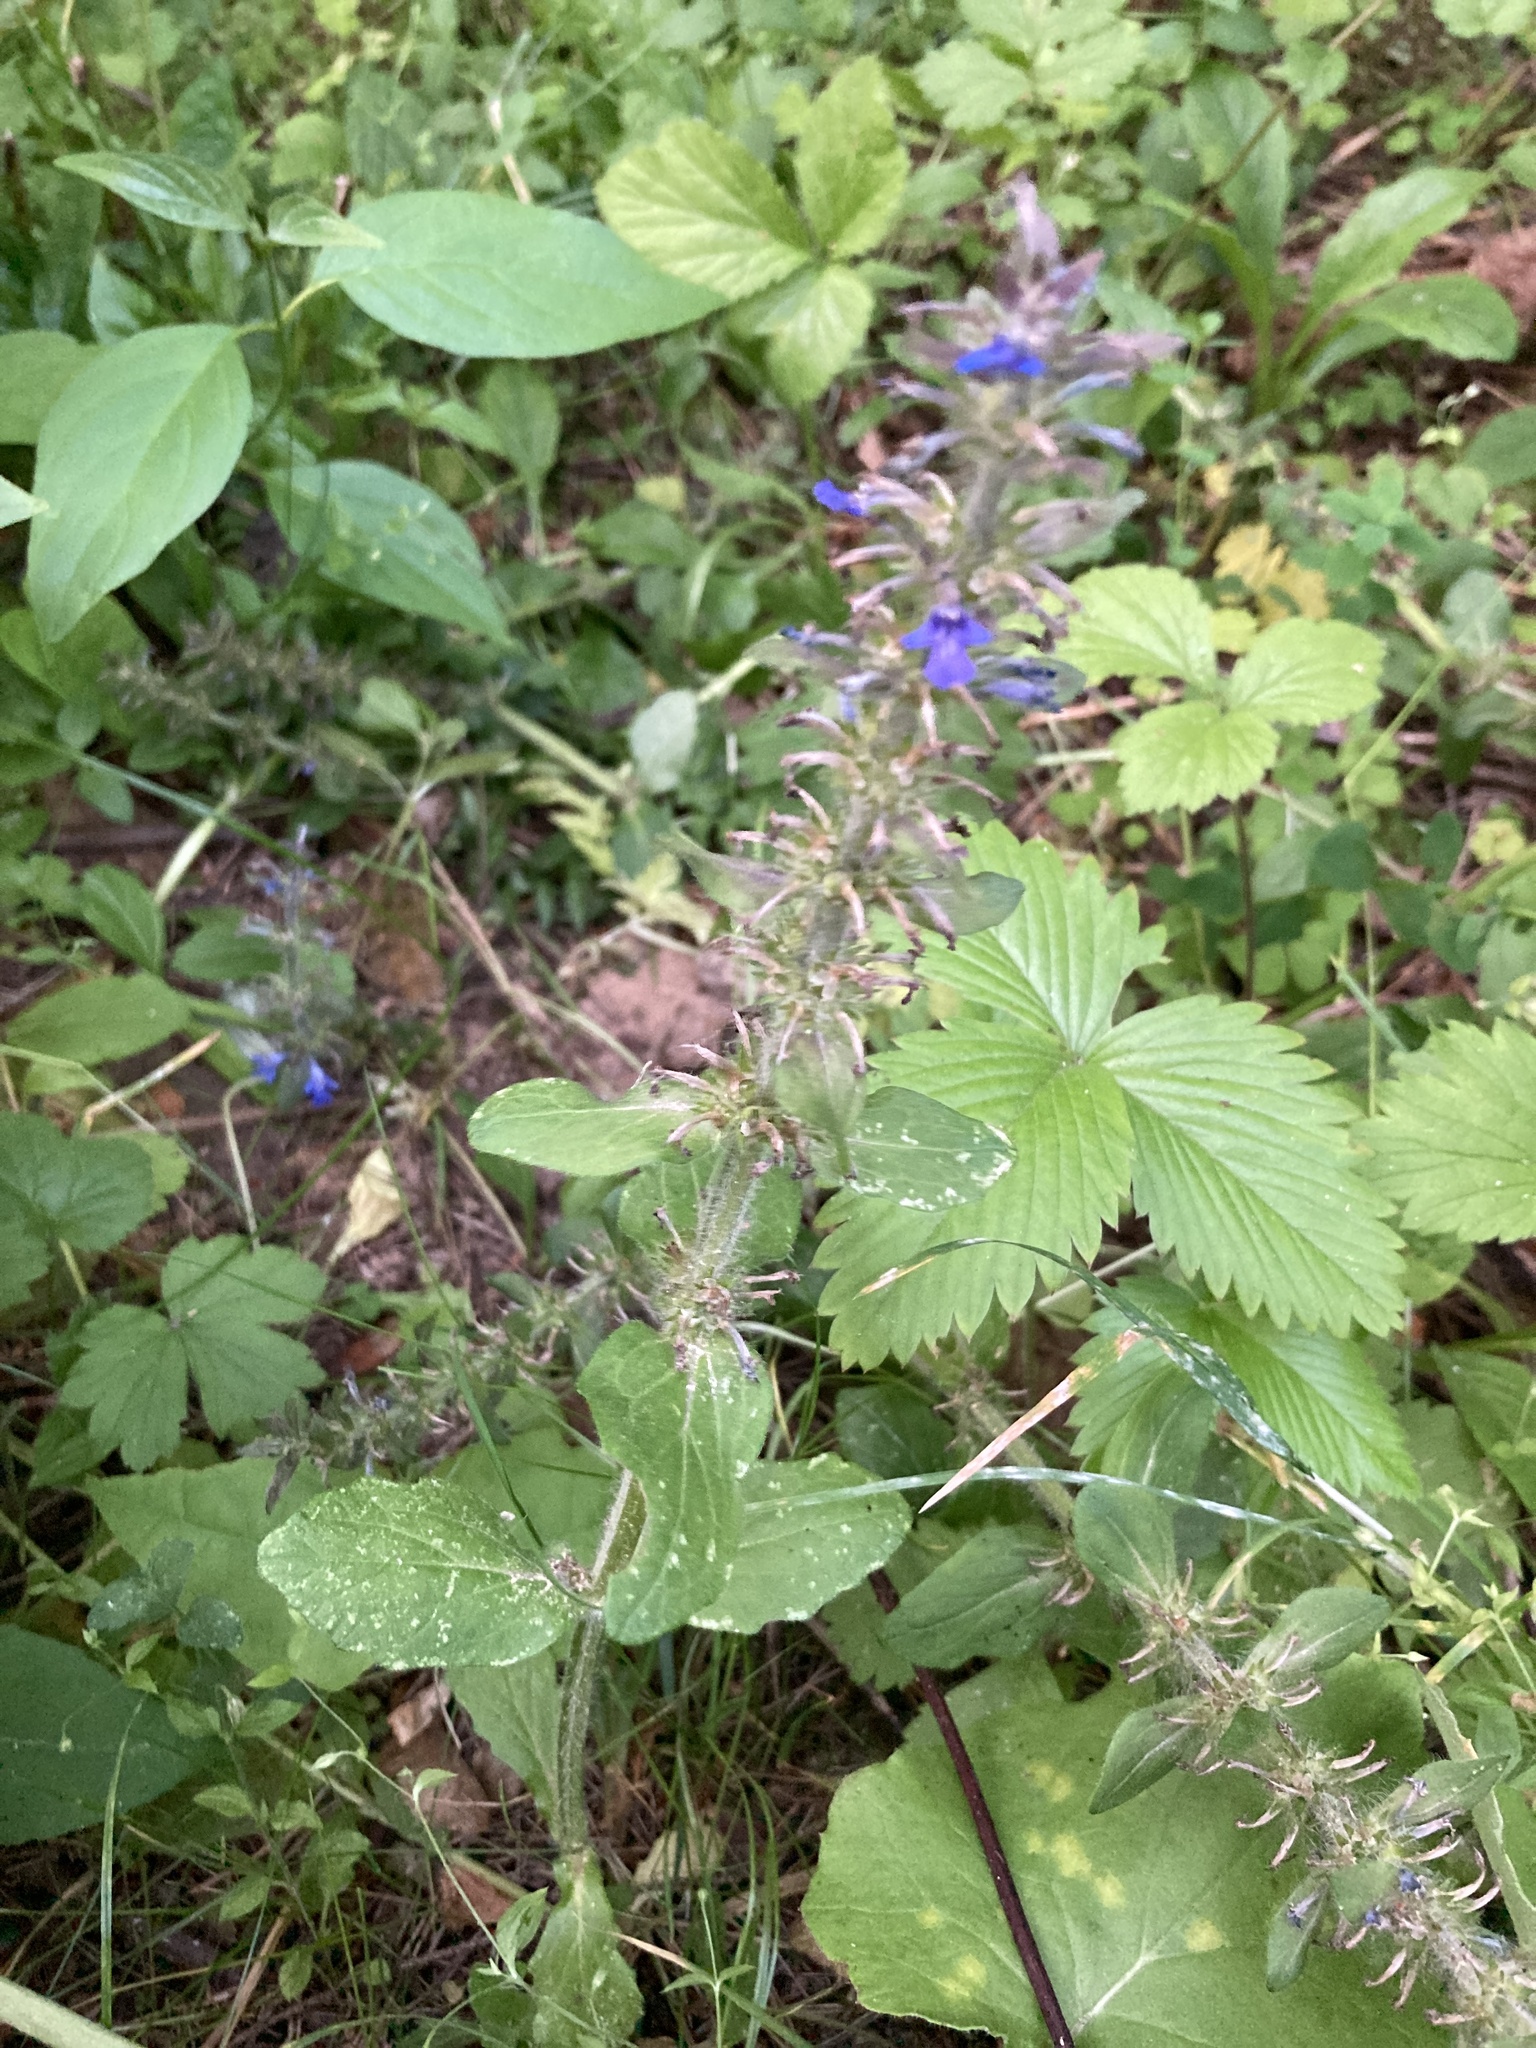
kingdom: Plantae
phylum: Tracheophyta
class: Magnoliopsida
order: Lamiales
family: Lamiaceae
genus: Ajuga
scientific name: Ajuga reptans
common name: Bugle
